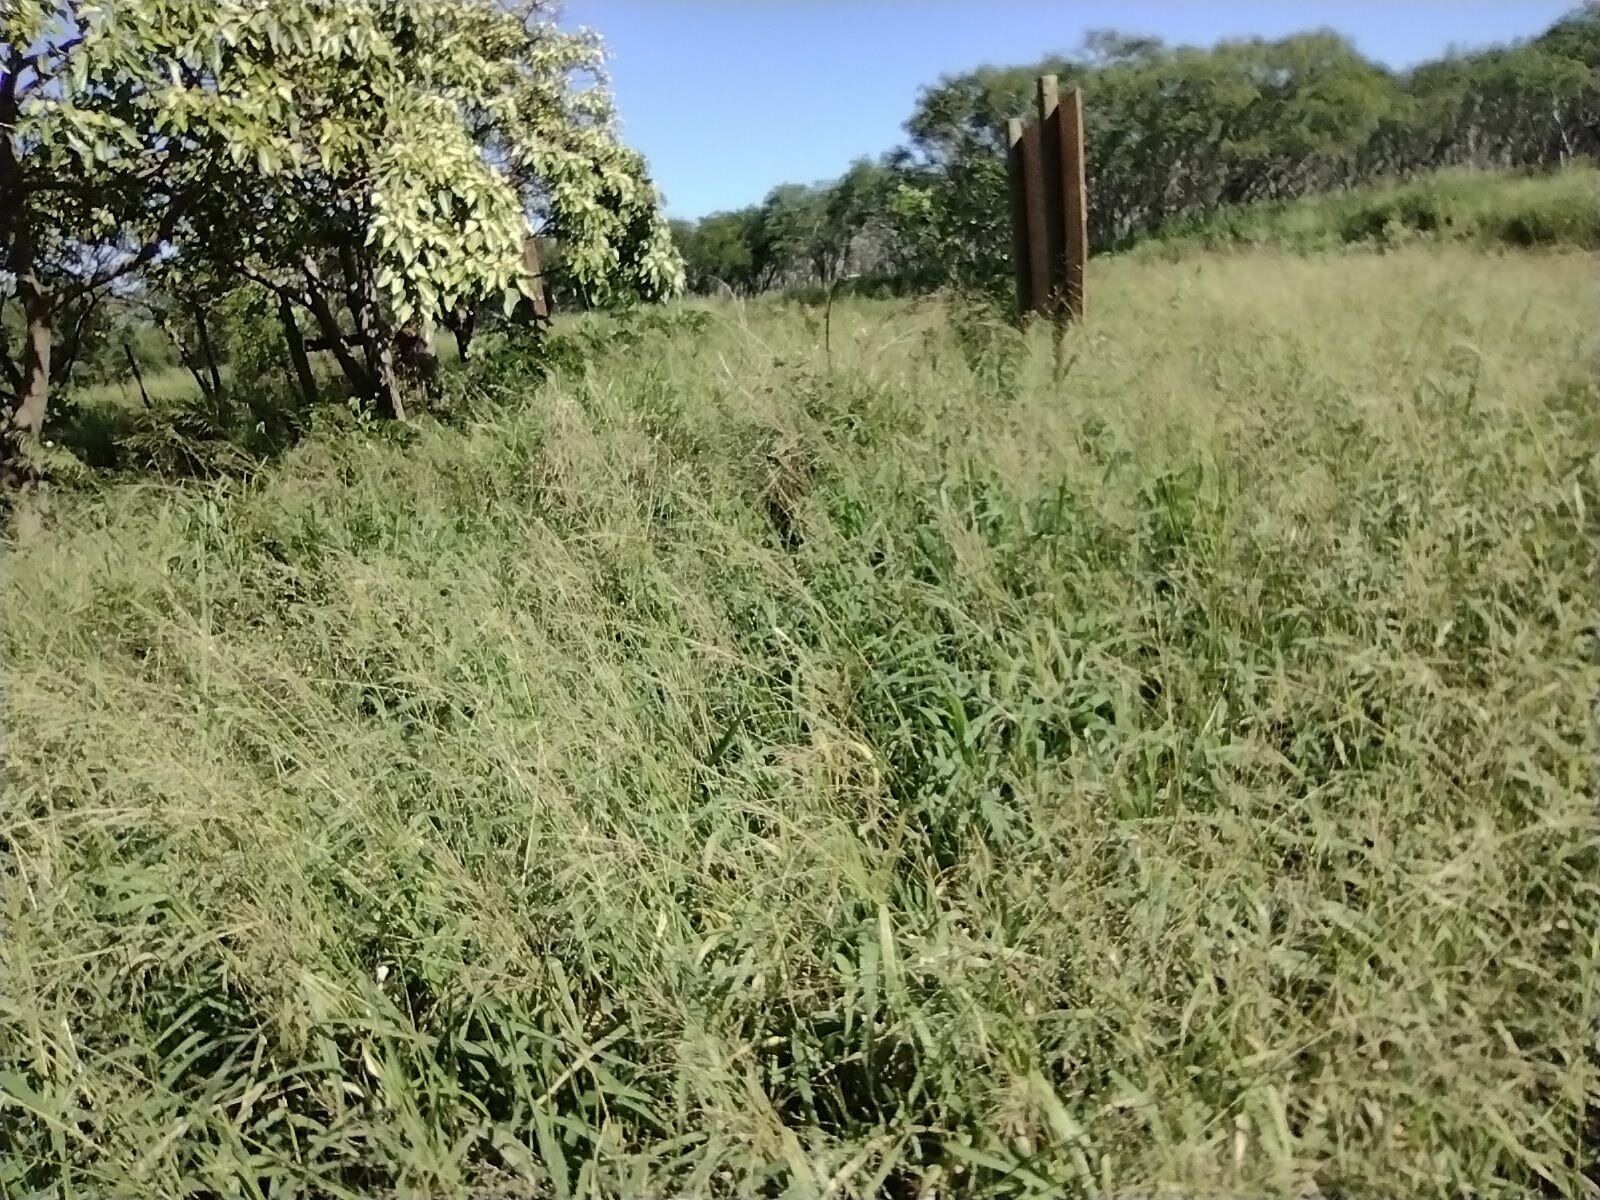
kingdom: Plantae
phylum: Tracheophyta
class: Liliopsida
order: Poales
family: Poaceae
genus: Megathyrsus
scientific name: Megathyrsus maximus
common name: Guineagrass
